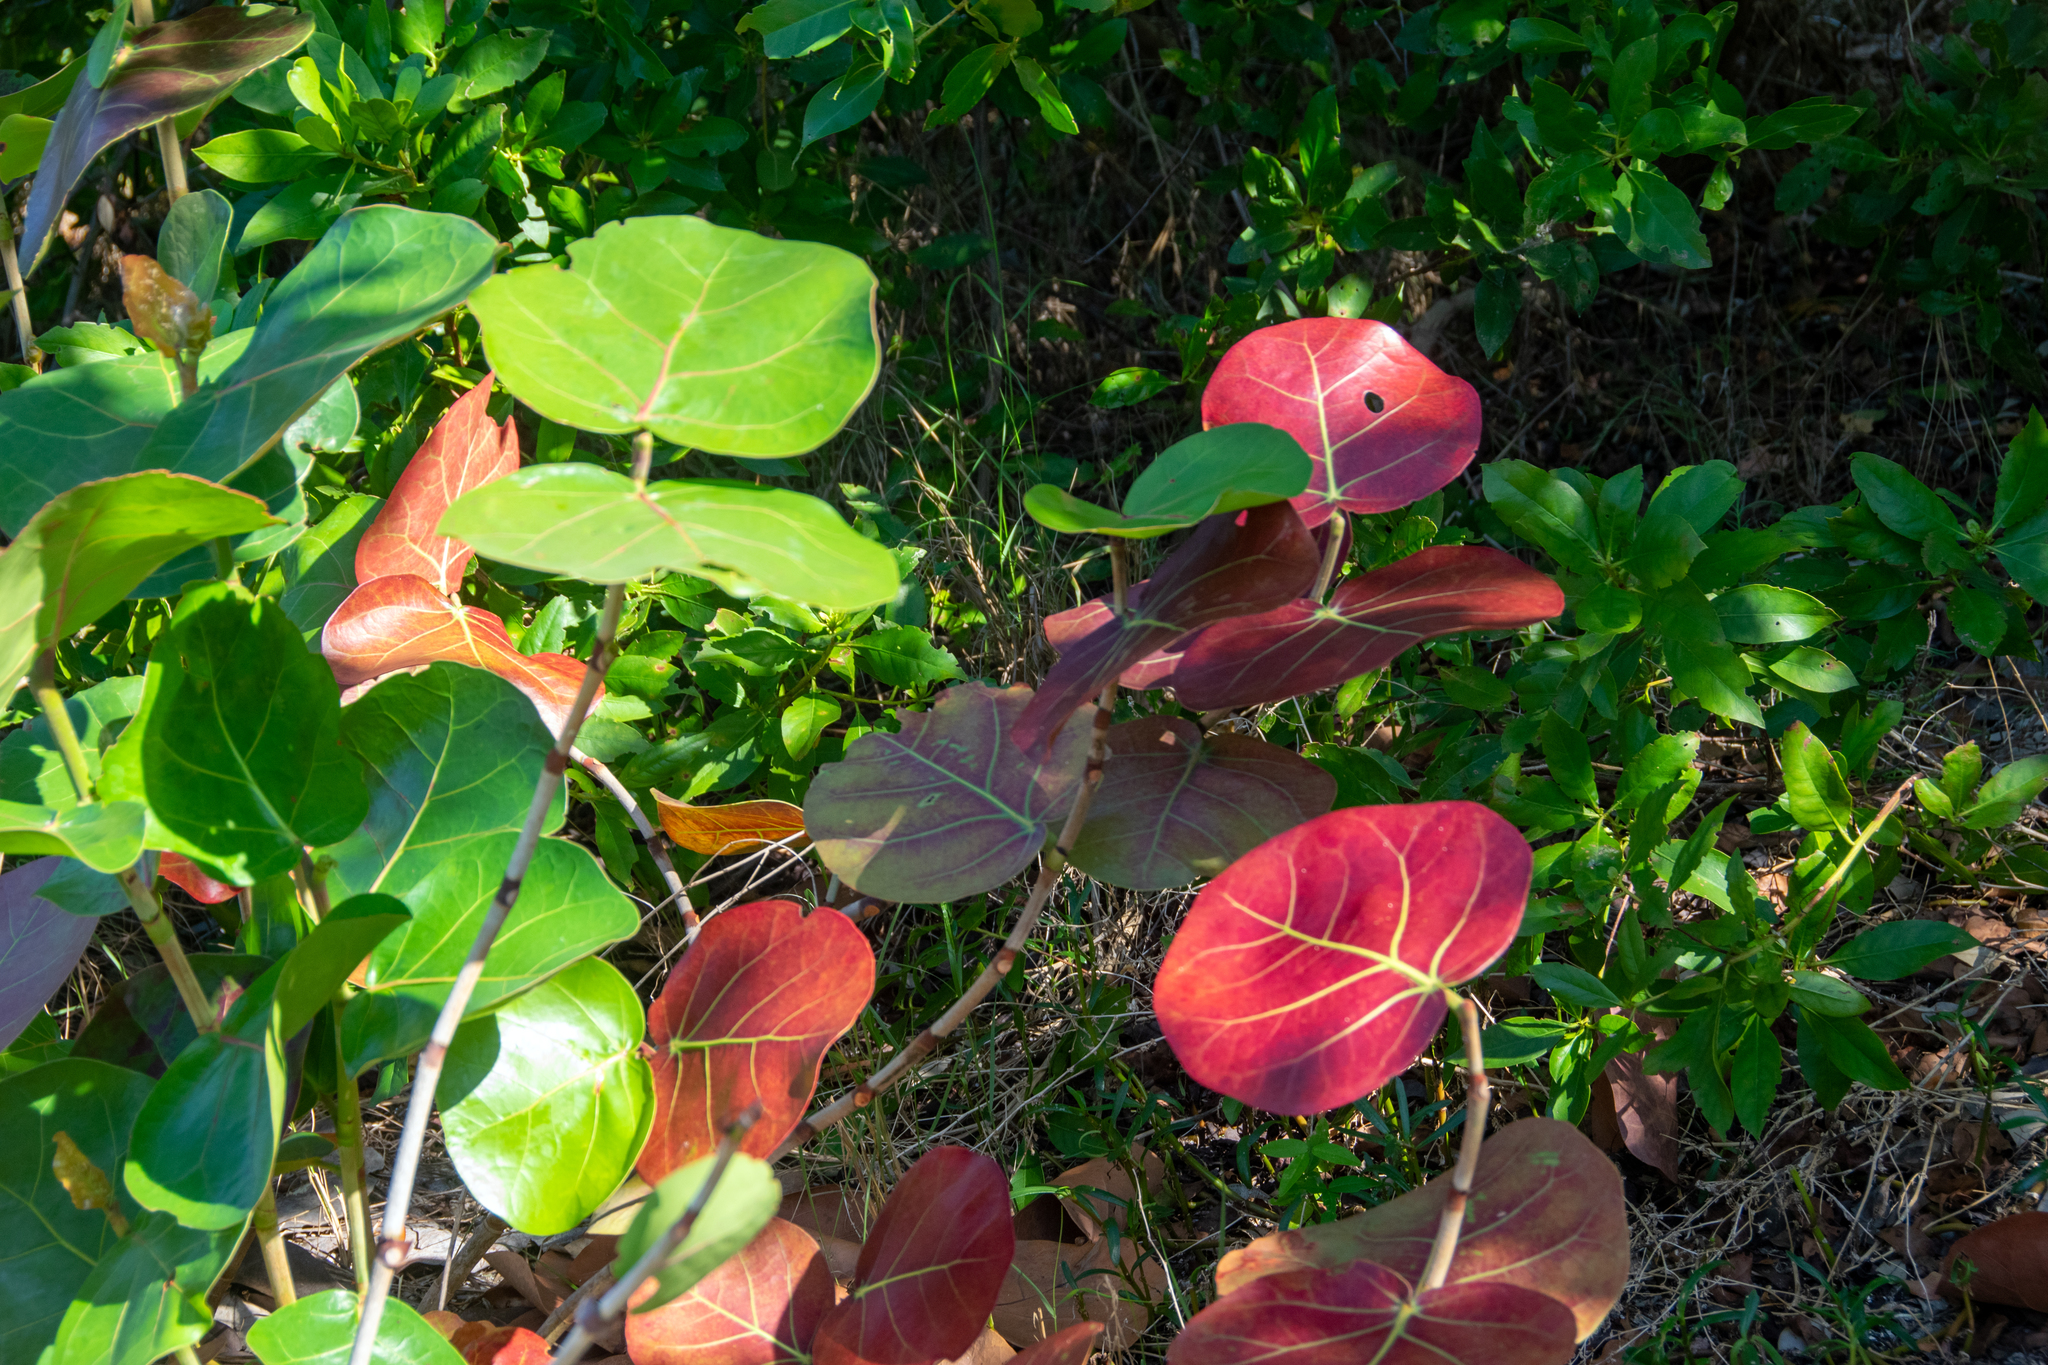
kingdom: Plantae
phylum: Tracheophyta
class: Magnoliopsida
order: Caryophyllales
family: Polygonaceae
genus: Coccoloba
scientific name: Coccoloba uvifera
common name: Seagrape
